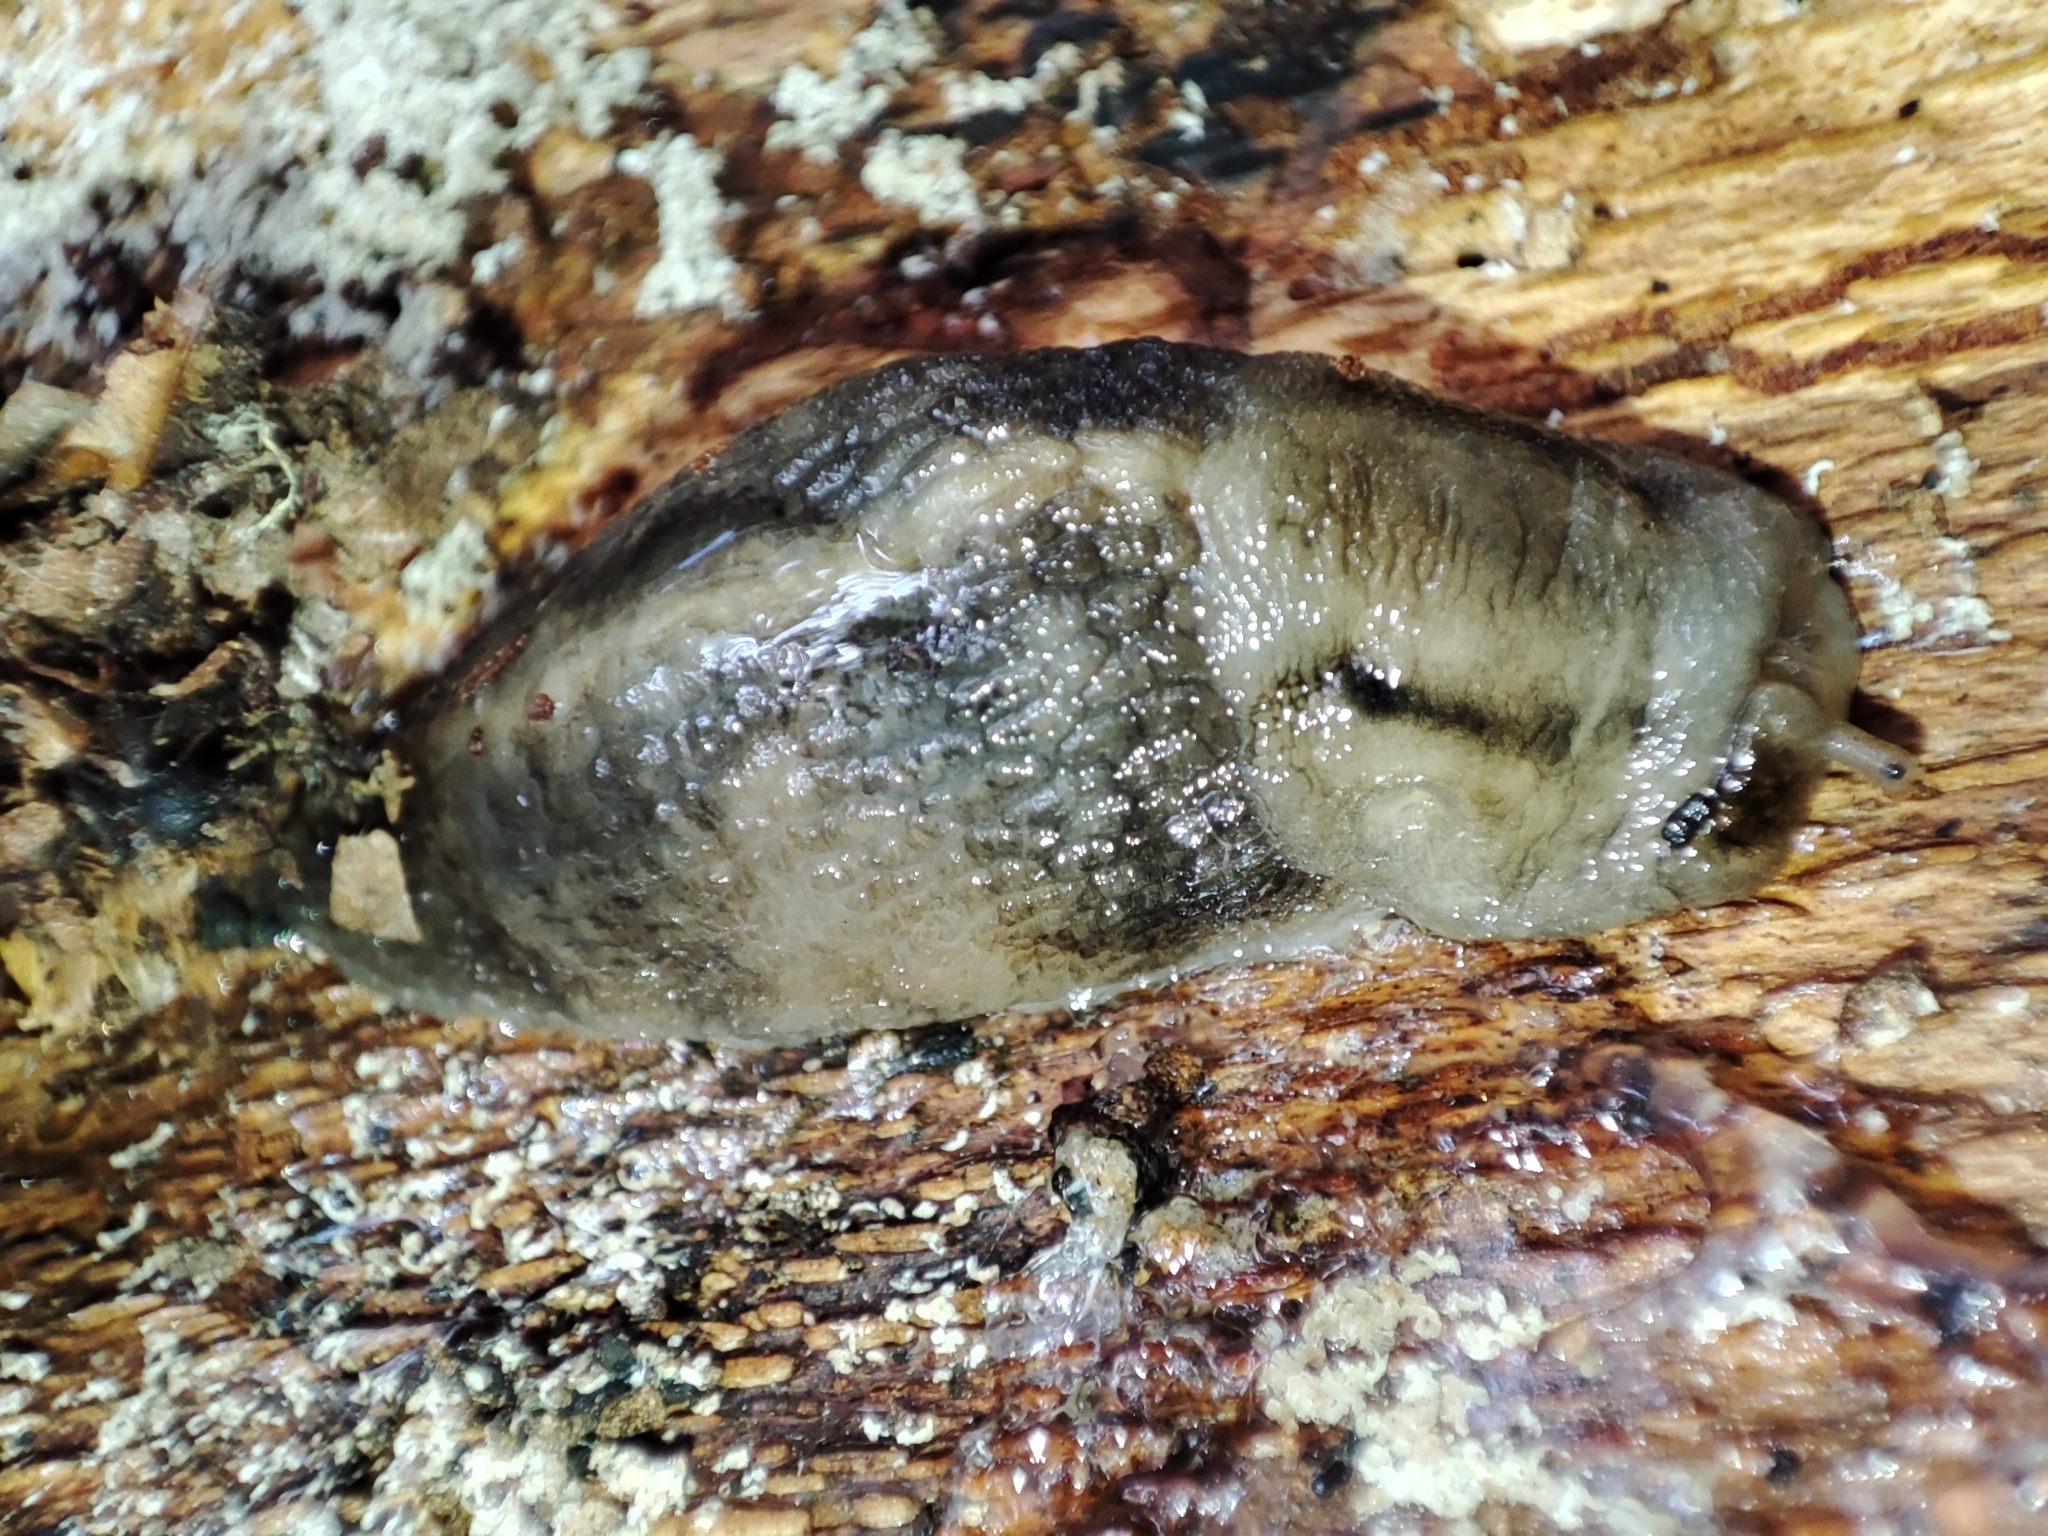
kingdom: Animalia
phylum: Mollusca
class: Gastropoda
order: Stylommatophora
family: Limacidae
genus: Lehmannia
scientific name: Lehmannia marginata
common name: Tree slug
